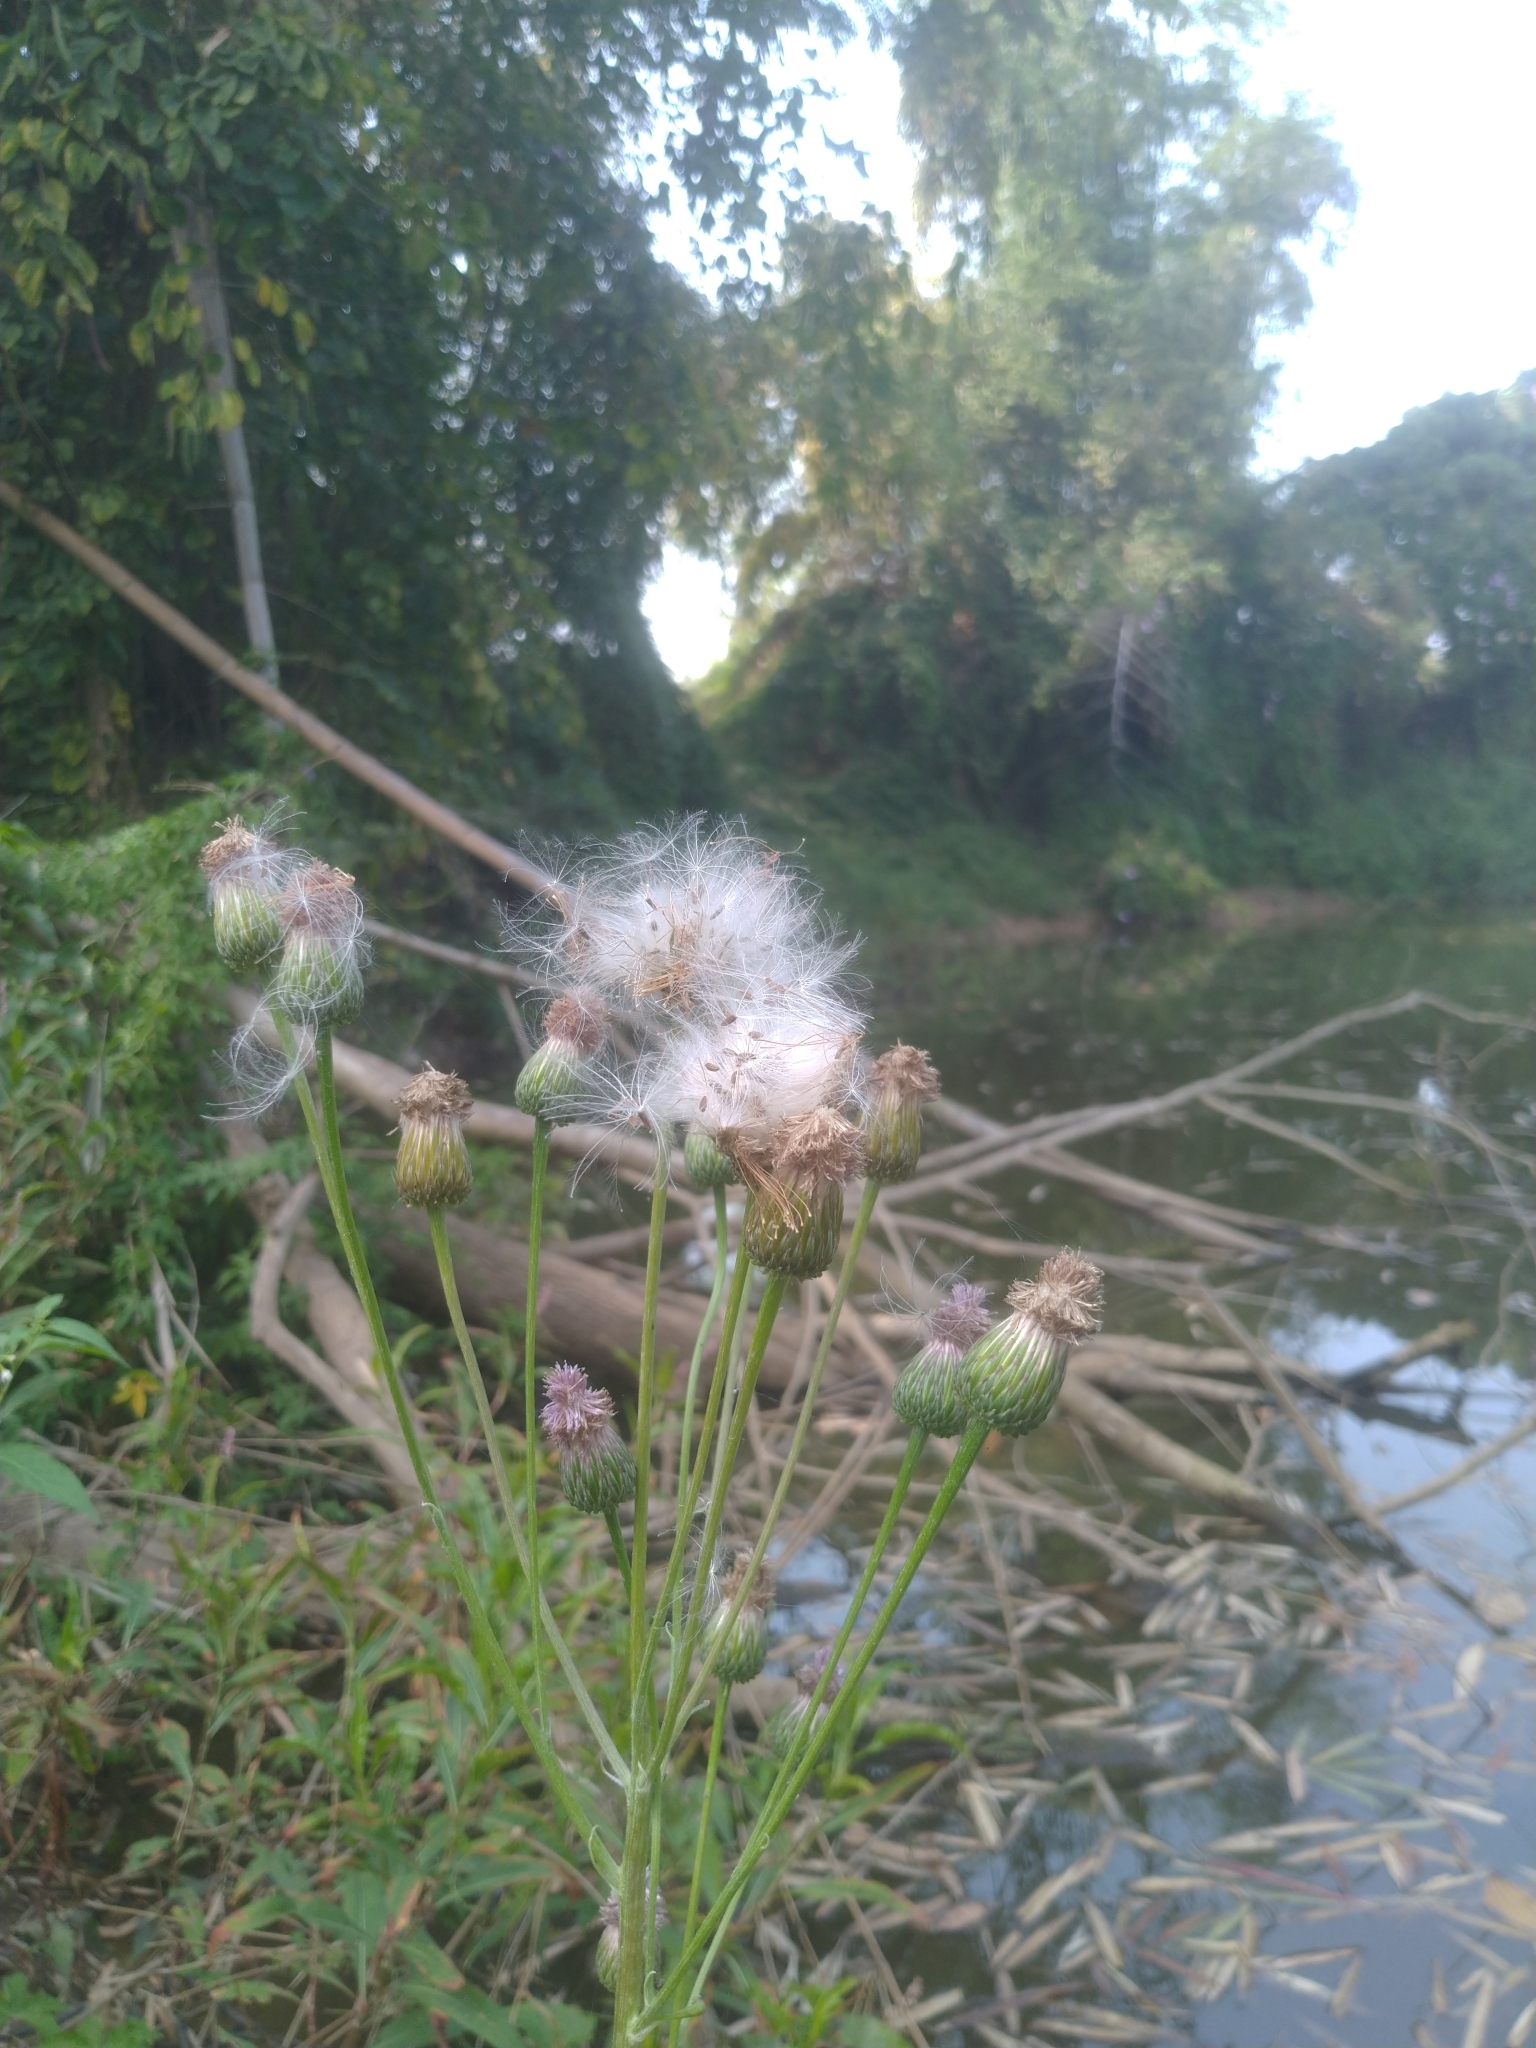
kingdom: Plantae
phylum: Tracheophyta
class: Magnoliopsida
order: Asterales
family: Asteraceae
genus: Saussurea
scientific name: Saussurea lyrata
